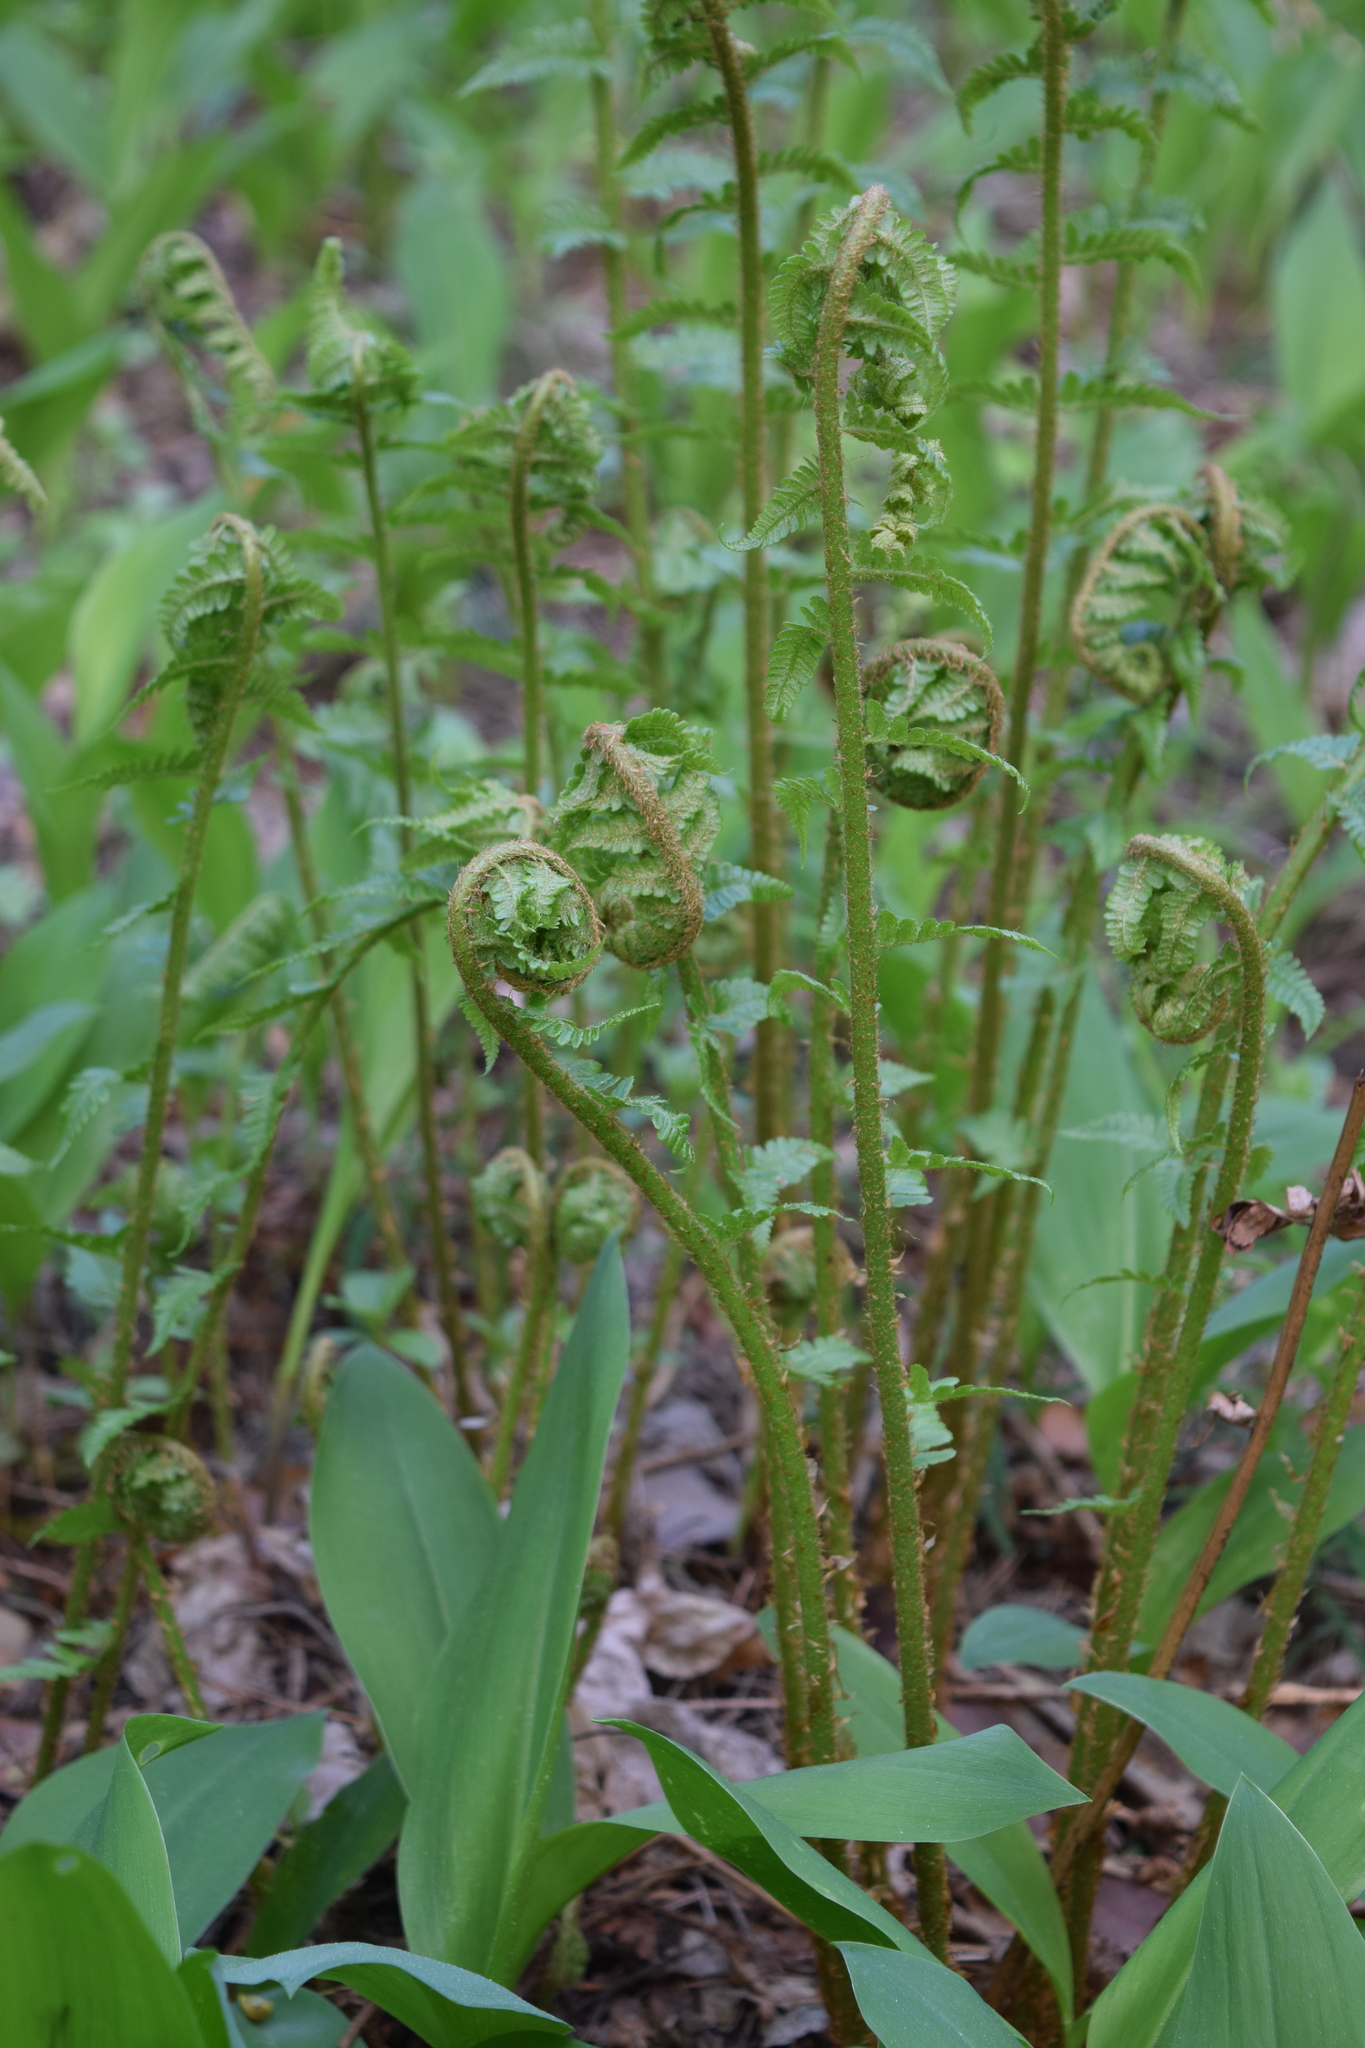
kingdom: Plantae
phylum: Tracheophyta
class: Polypodiopsida
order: Polypodiales
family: Dryopteridaceae
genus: Dryopteris
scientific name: Dryopteris filix-mas
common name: Male fern
